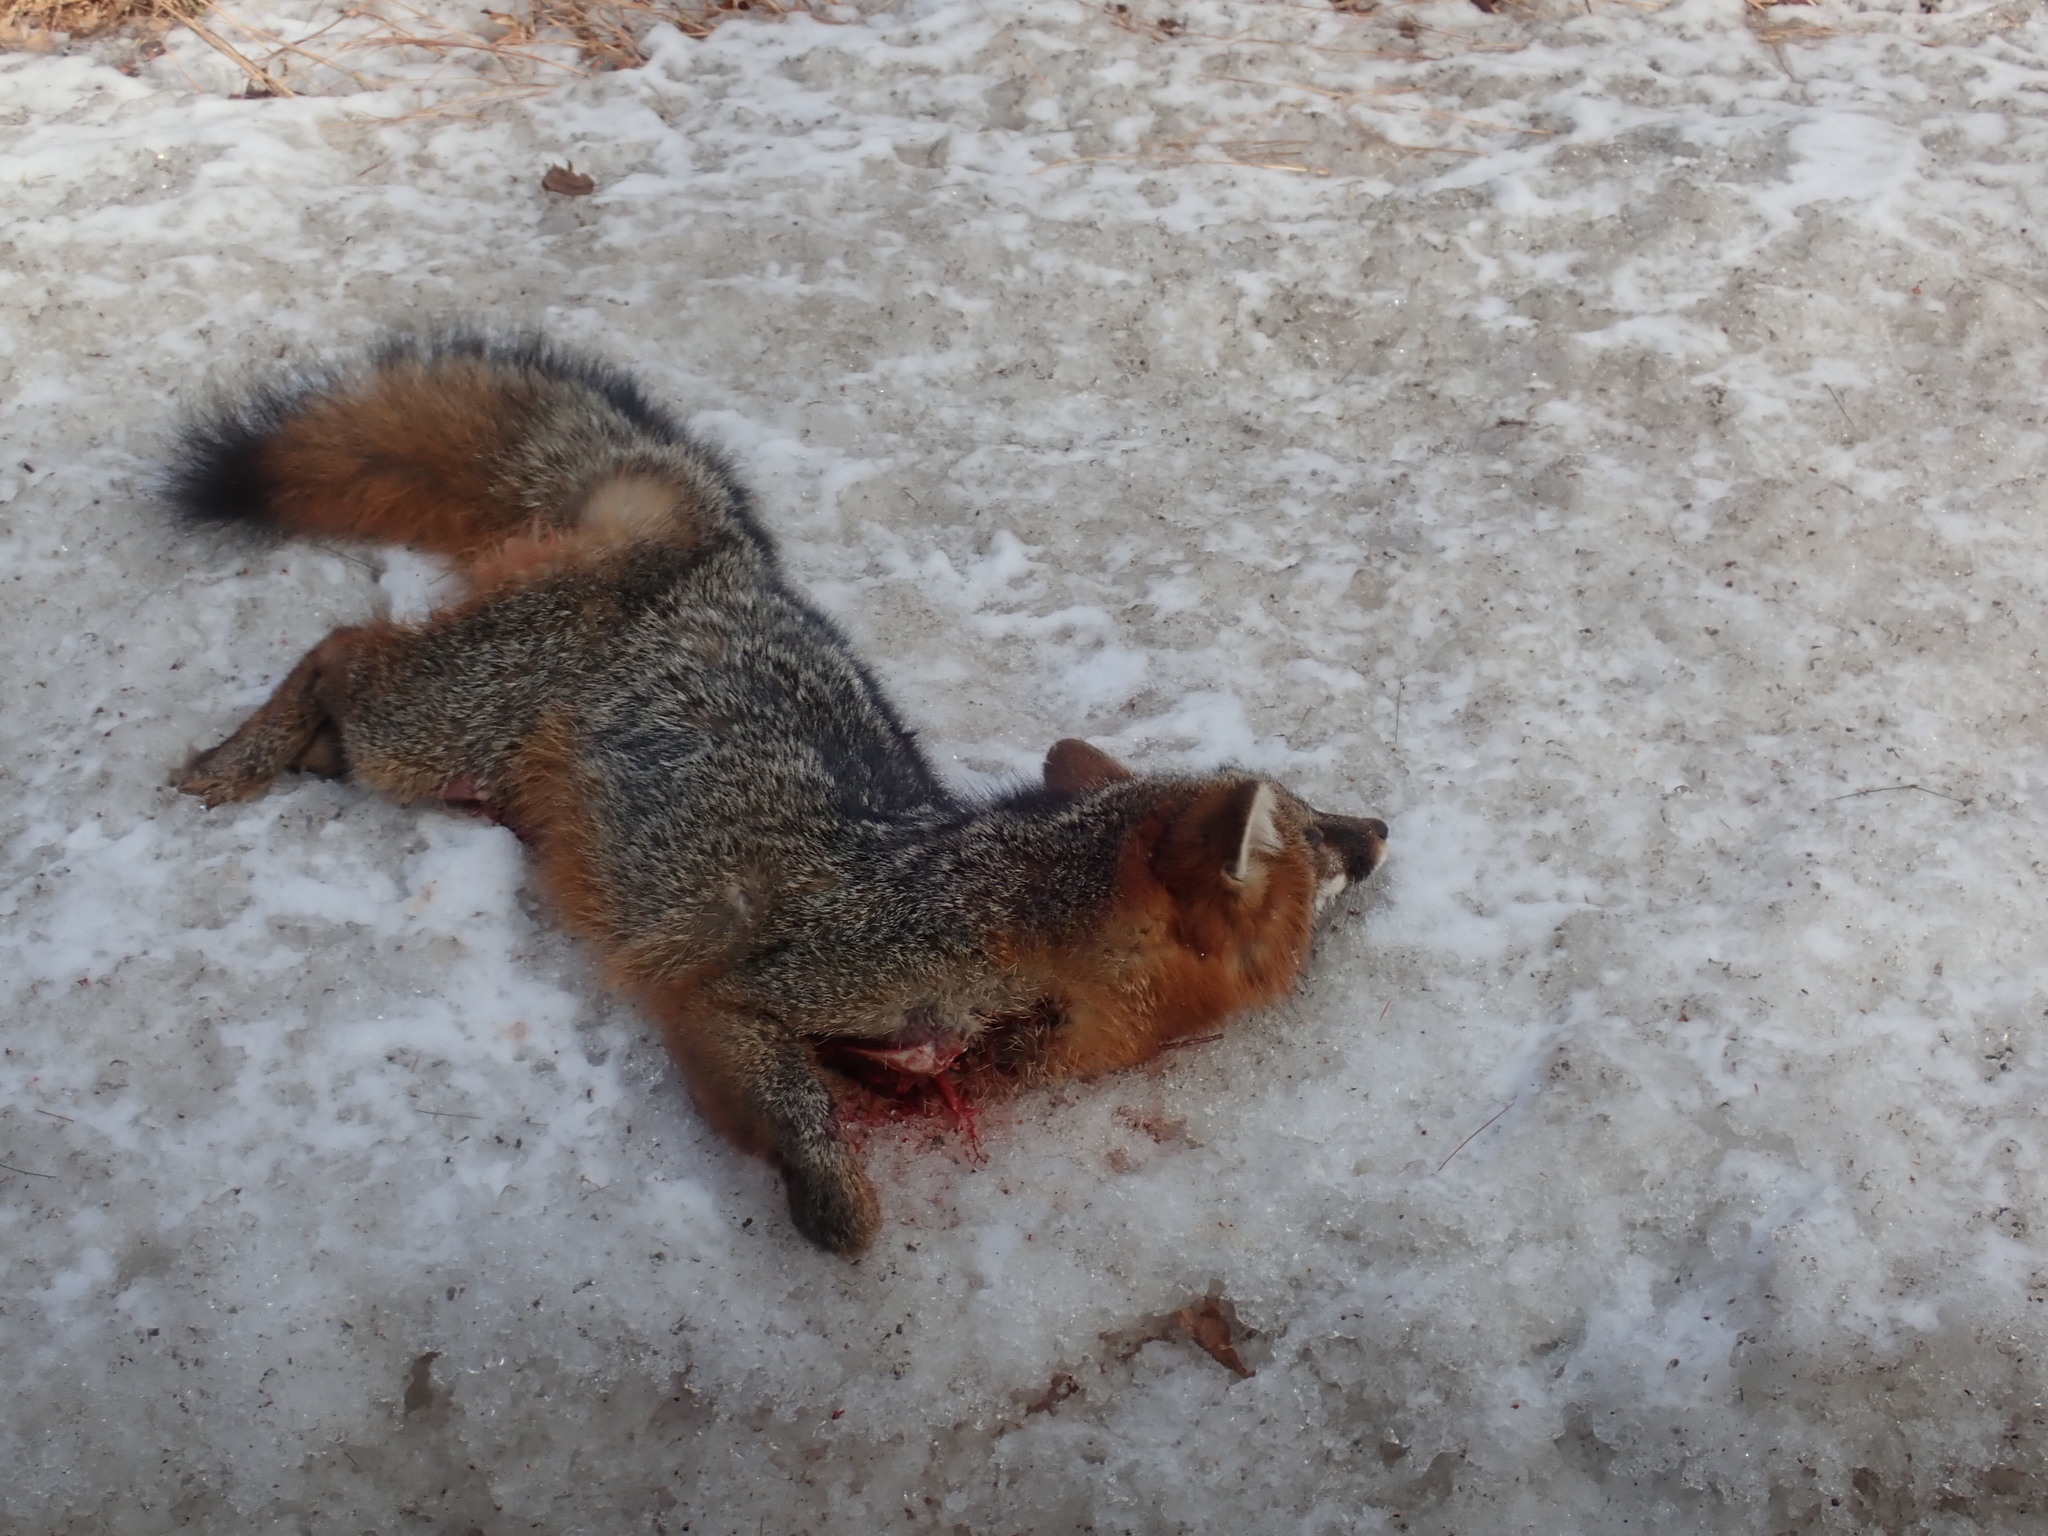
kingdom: Animalia
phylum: Chordata
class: Mammalia
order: Carnivora
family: Canidae
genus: Urocyon
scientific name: Urocyon cinereoargenteus
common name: Gray fox
